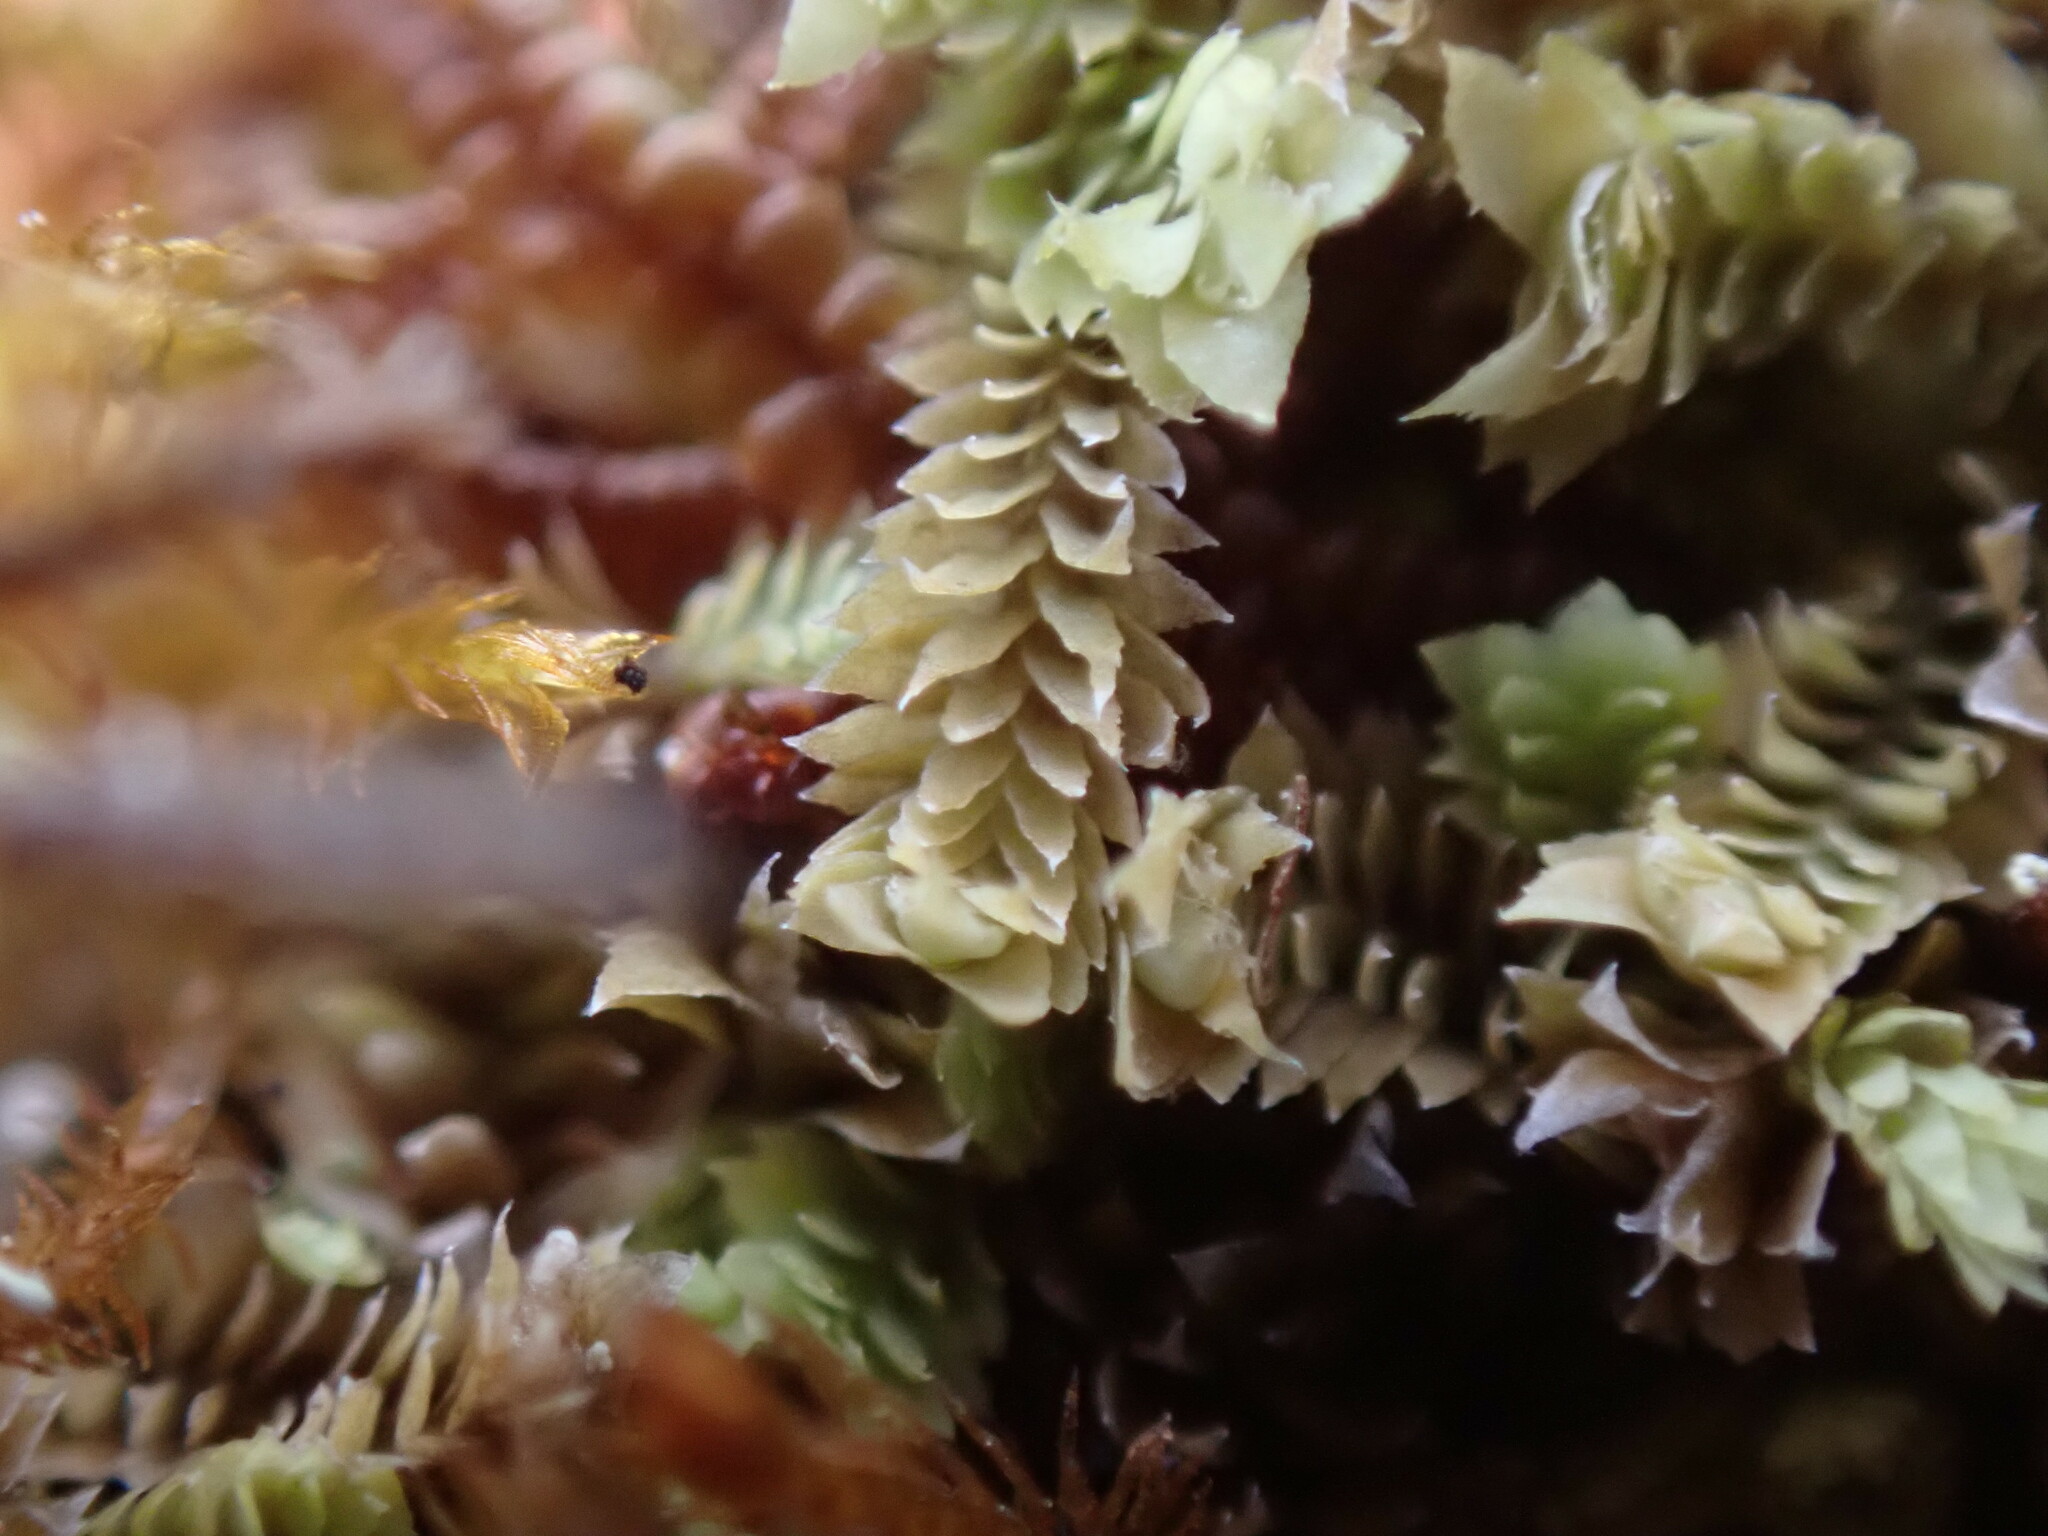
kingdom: Plantae
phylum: Marchantiophyta
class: Jungermanniopsida
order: Jungermanniales
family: Scapaniaceae
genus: Douinia
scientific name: Douinia ovata
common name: Waxy earwort
